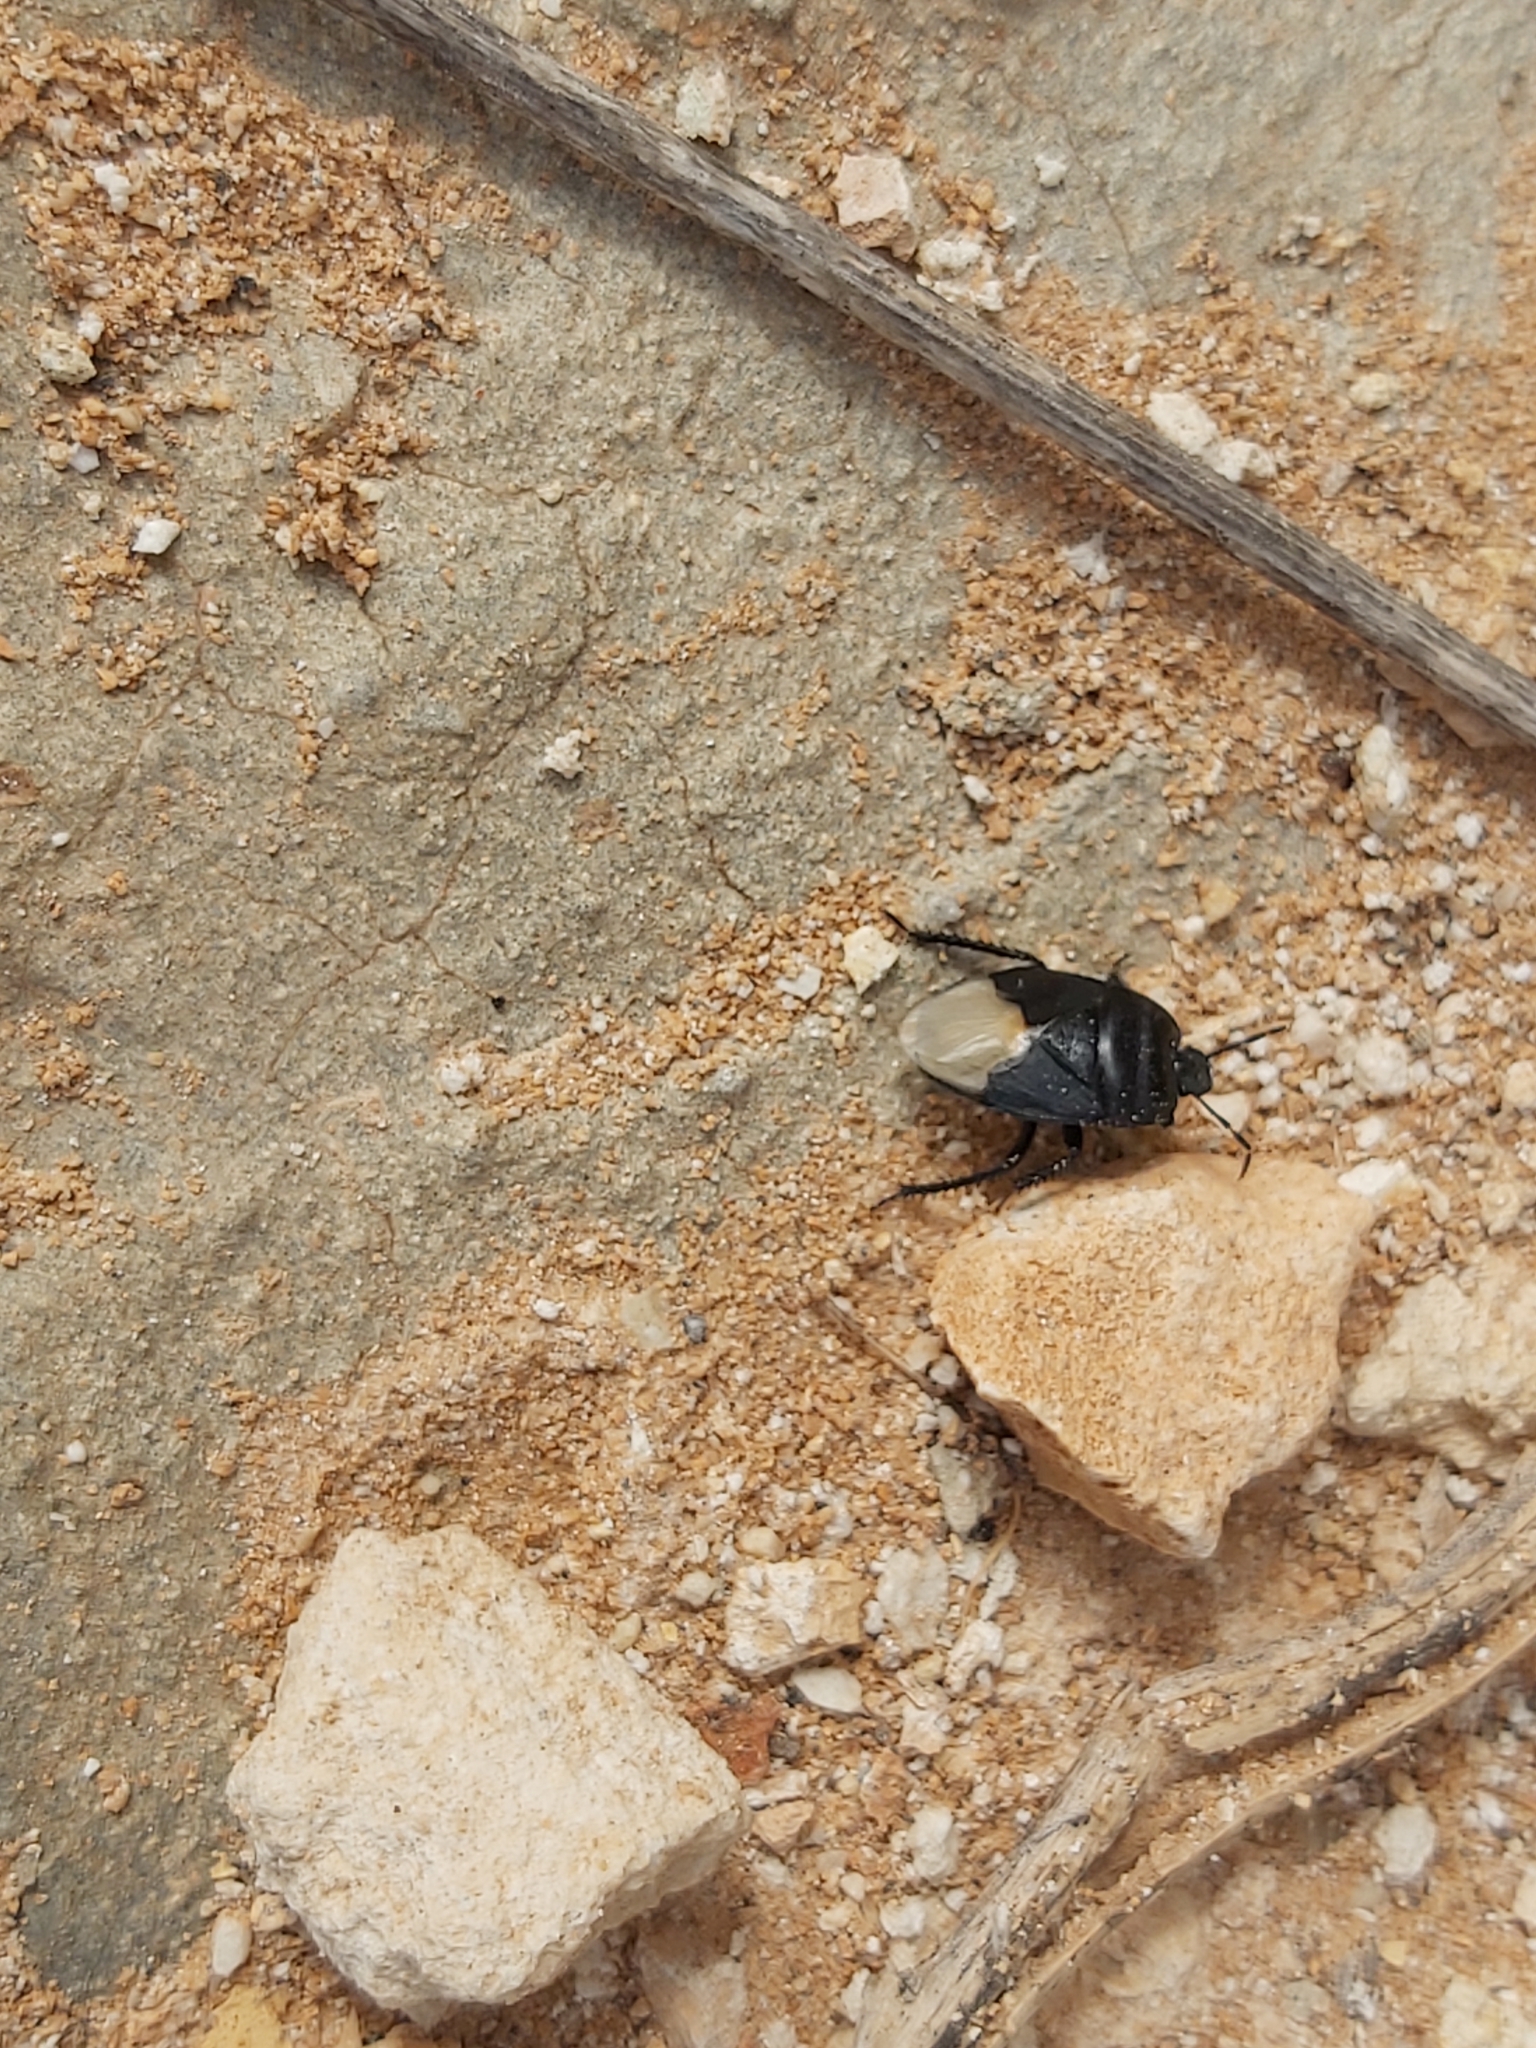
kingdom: Animalia
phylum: Arthropoda
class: Insecta
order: Hemiptera
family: Cydnidae
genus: Cydnus
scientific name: Cydnus aterrimus
